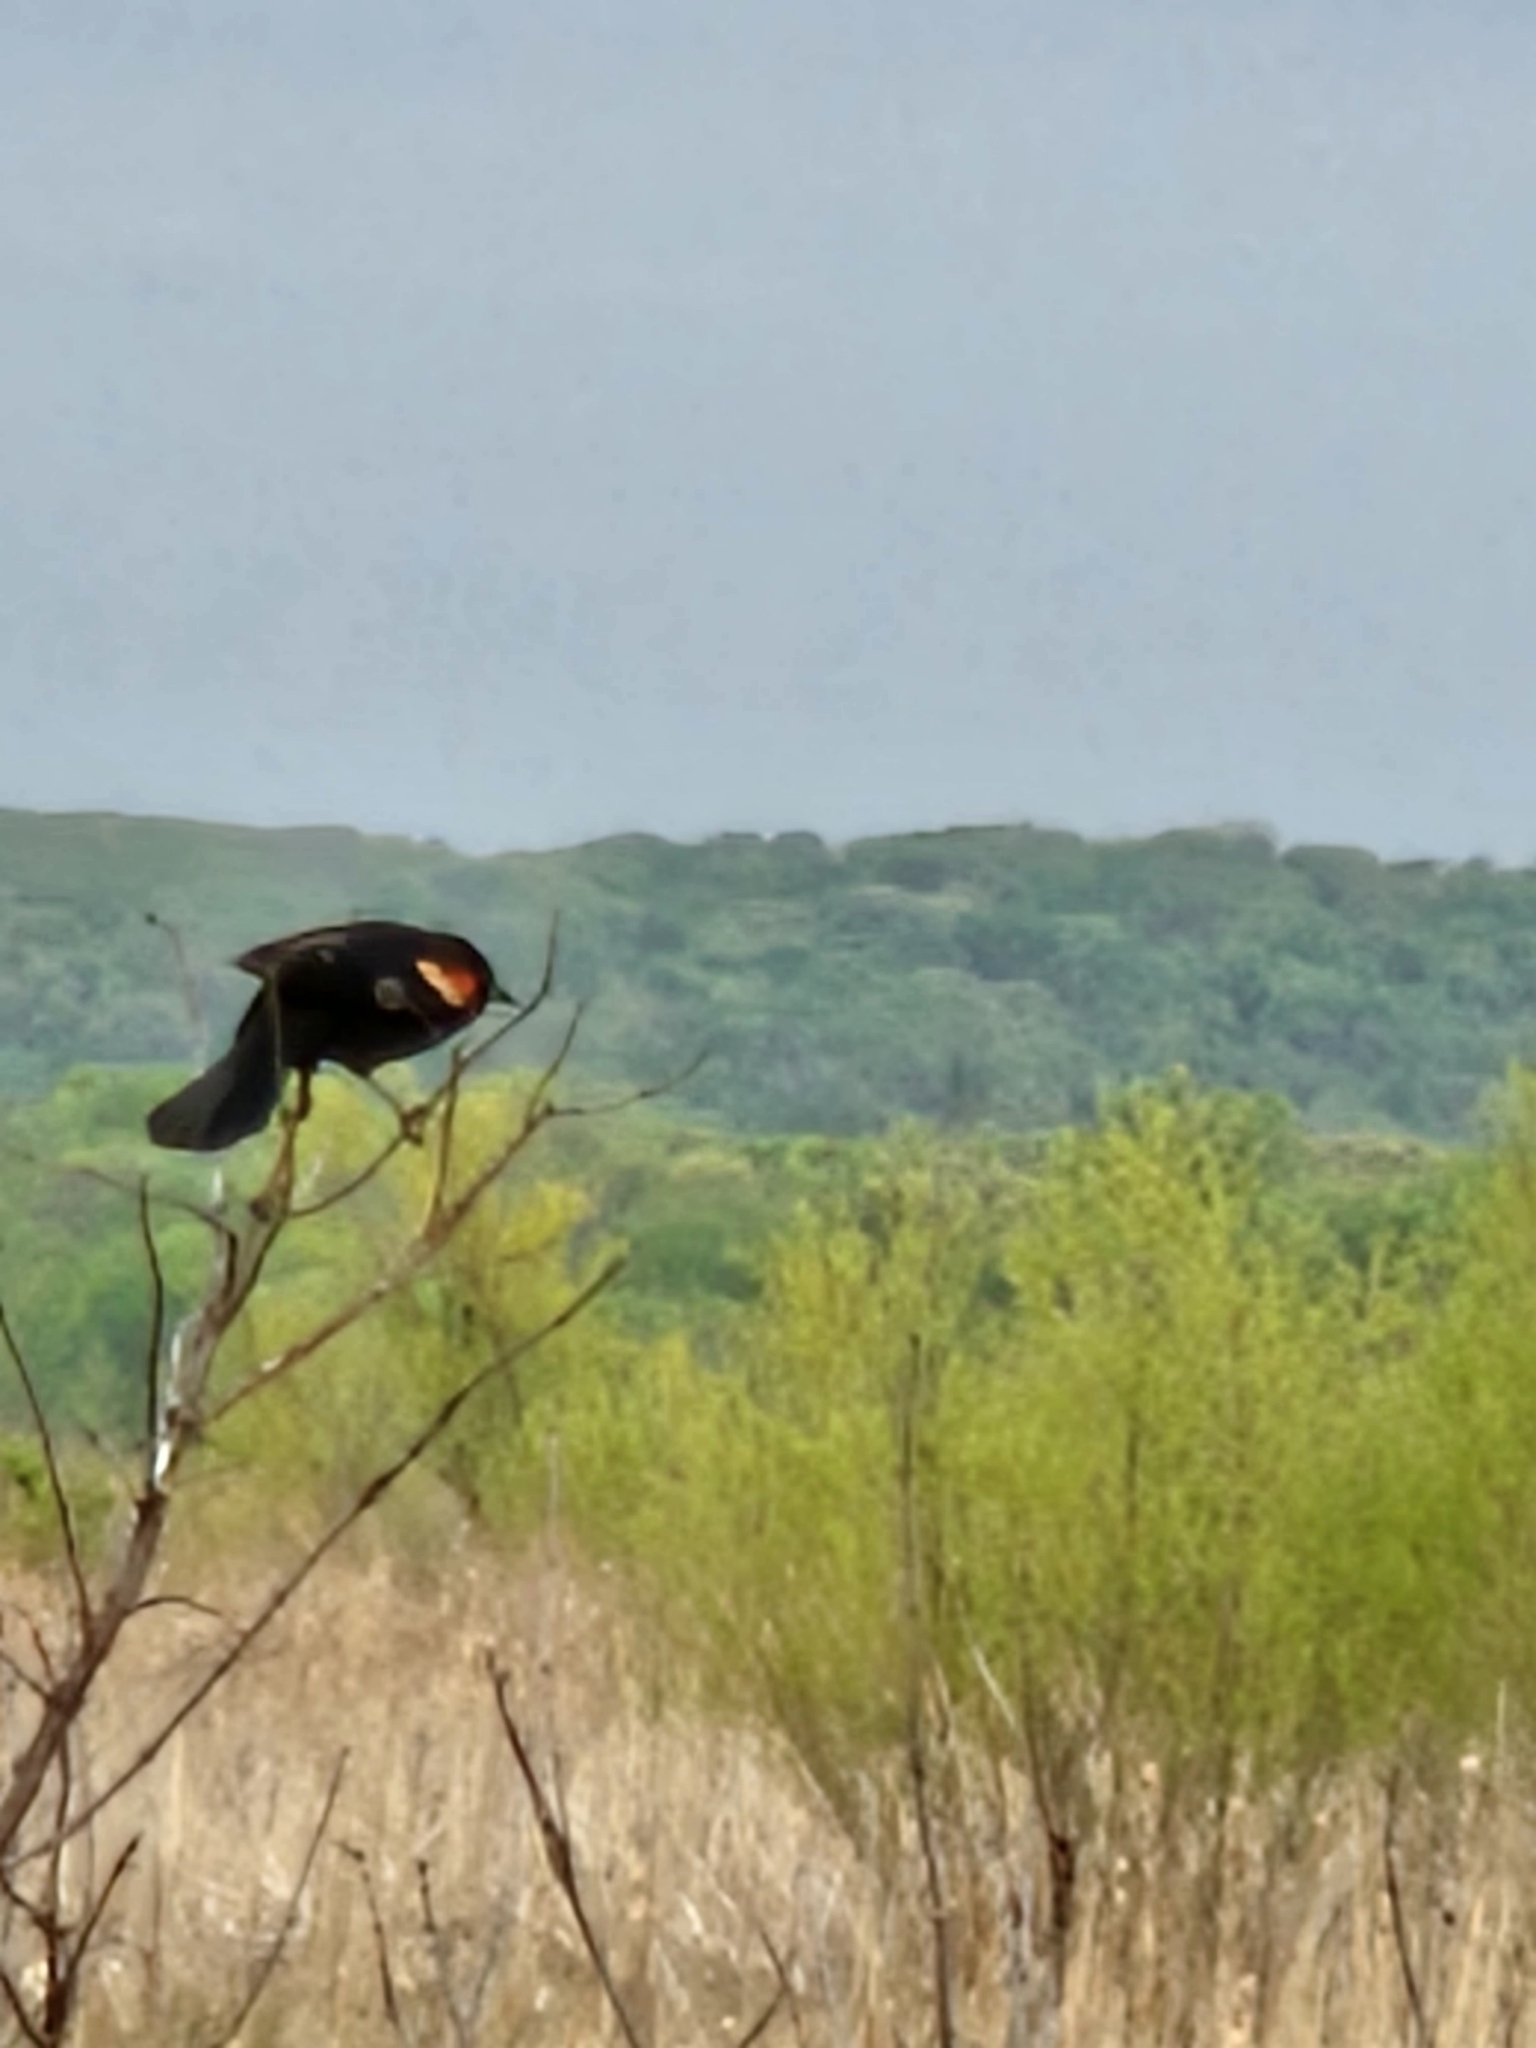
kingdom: Animalia
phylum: Chordata
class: Aves
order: Passeriformes
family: Icteridae
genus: Agelaius
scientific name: Agelaius phoeniceus
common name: Red-winged blackbird
